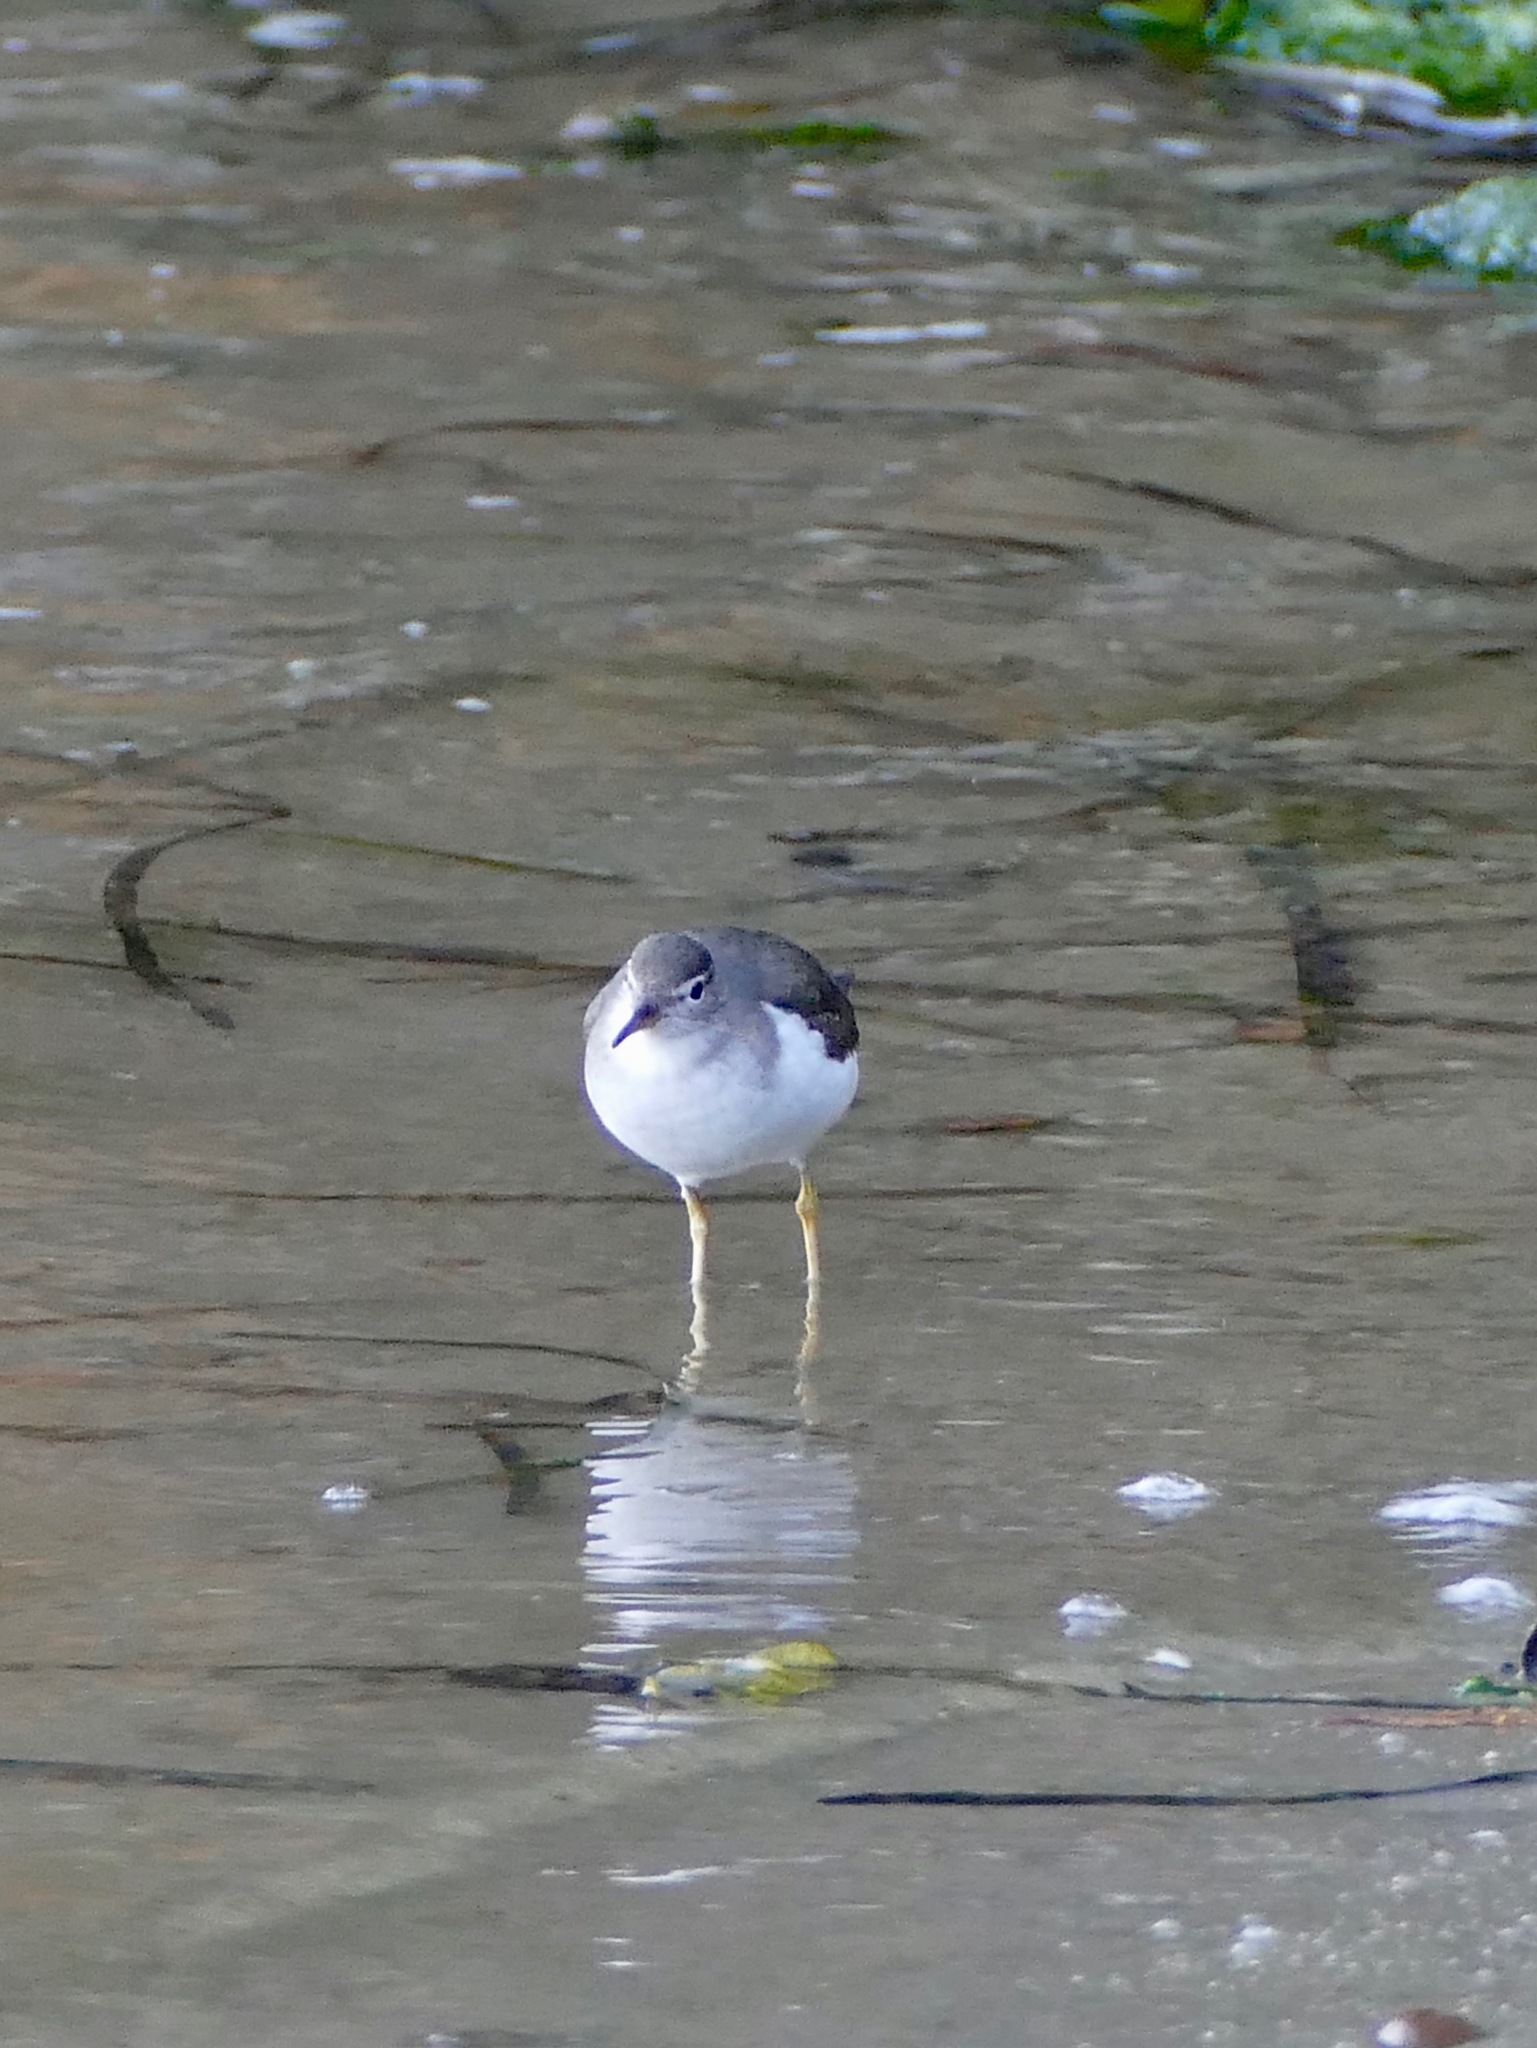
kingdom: Animalia
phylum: Chordata
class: Aves
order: Charadriiformes
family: Scolopacidae
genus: Actitis
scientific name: Actitis macularius
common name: Spotted sandpiper
